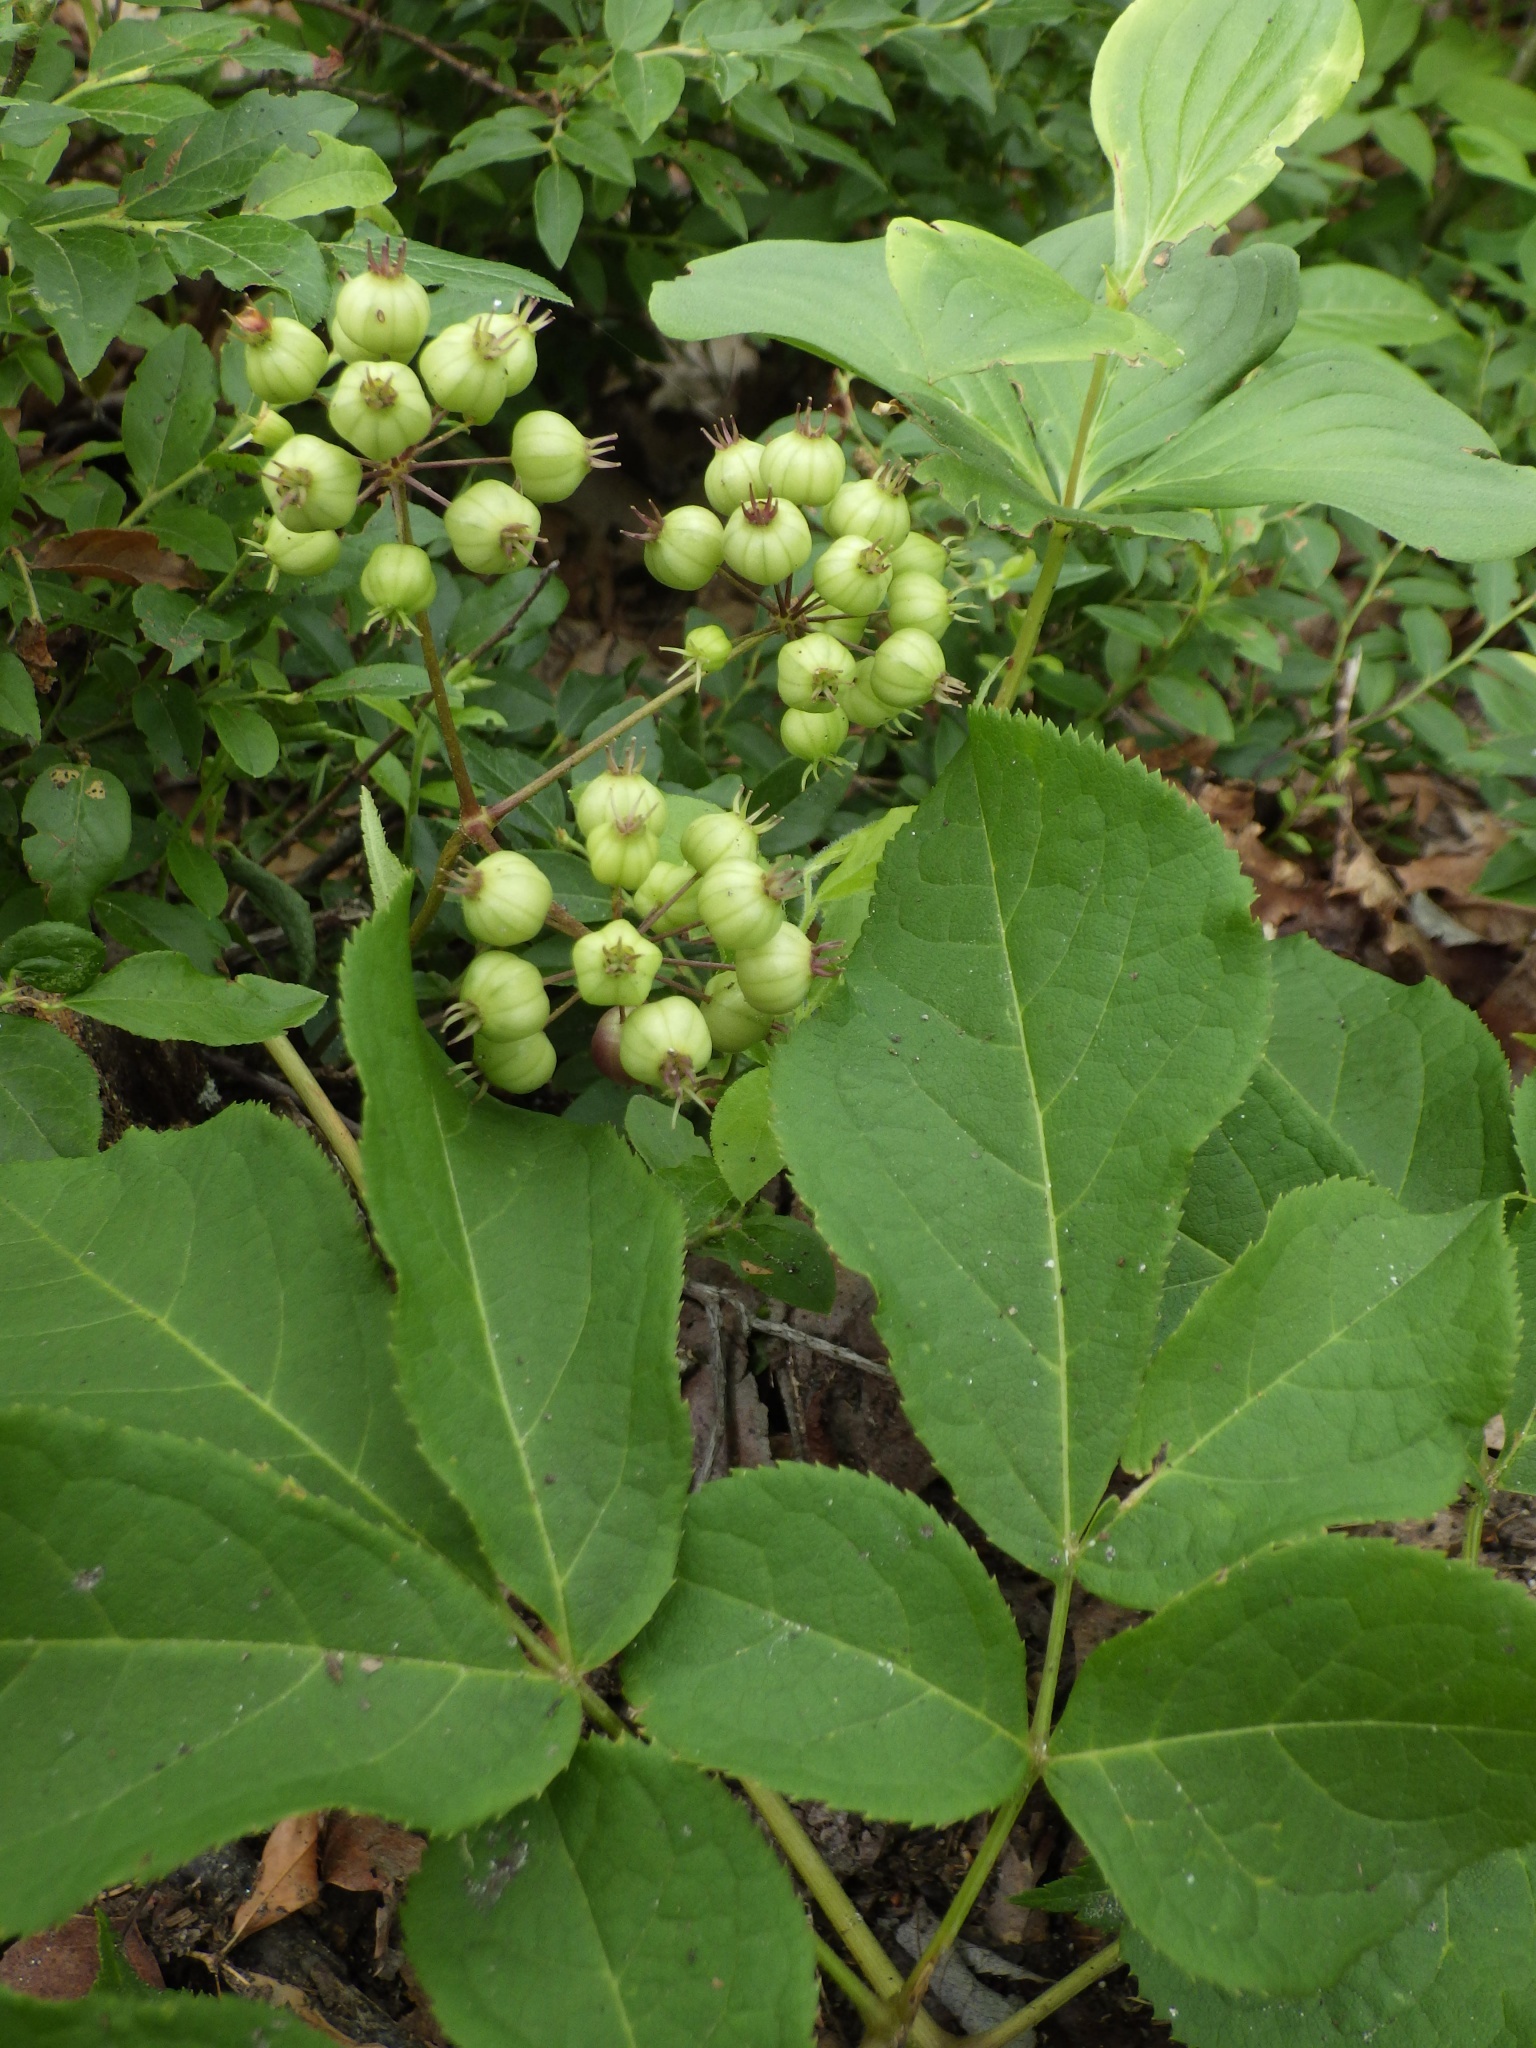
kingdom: Plantae
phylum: Tracheophyta
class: Magnoliopsida
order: Apiales
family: Araliaceae
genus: Aralia
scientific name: Aralia nudicaulis
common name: Wild sarsaparilla
